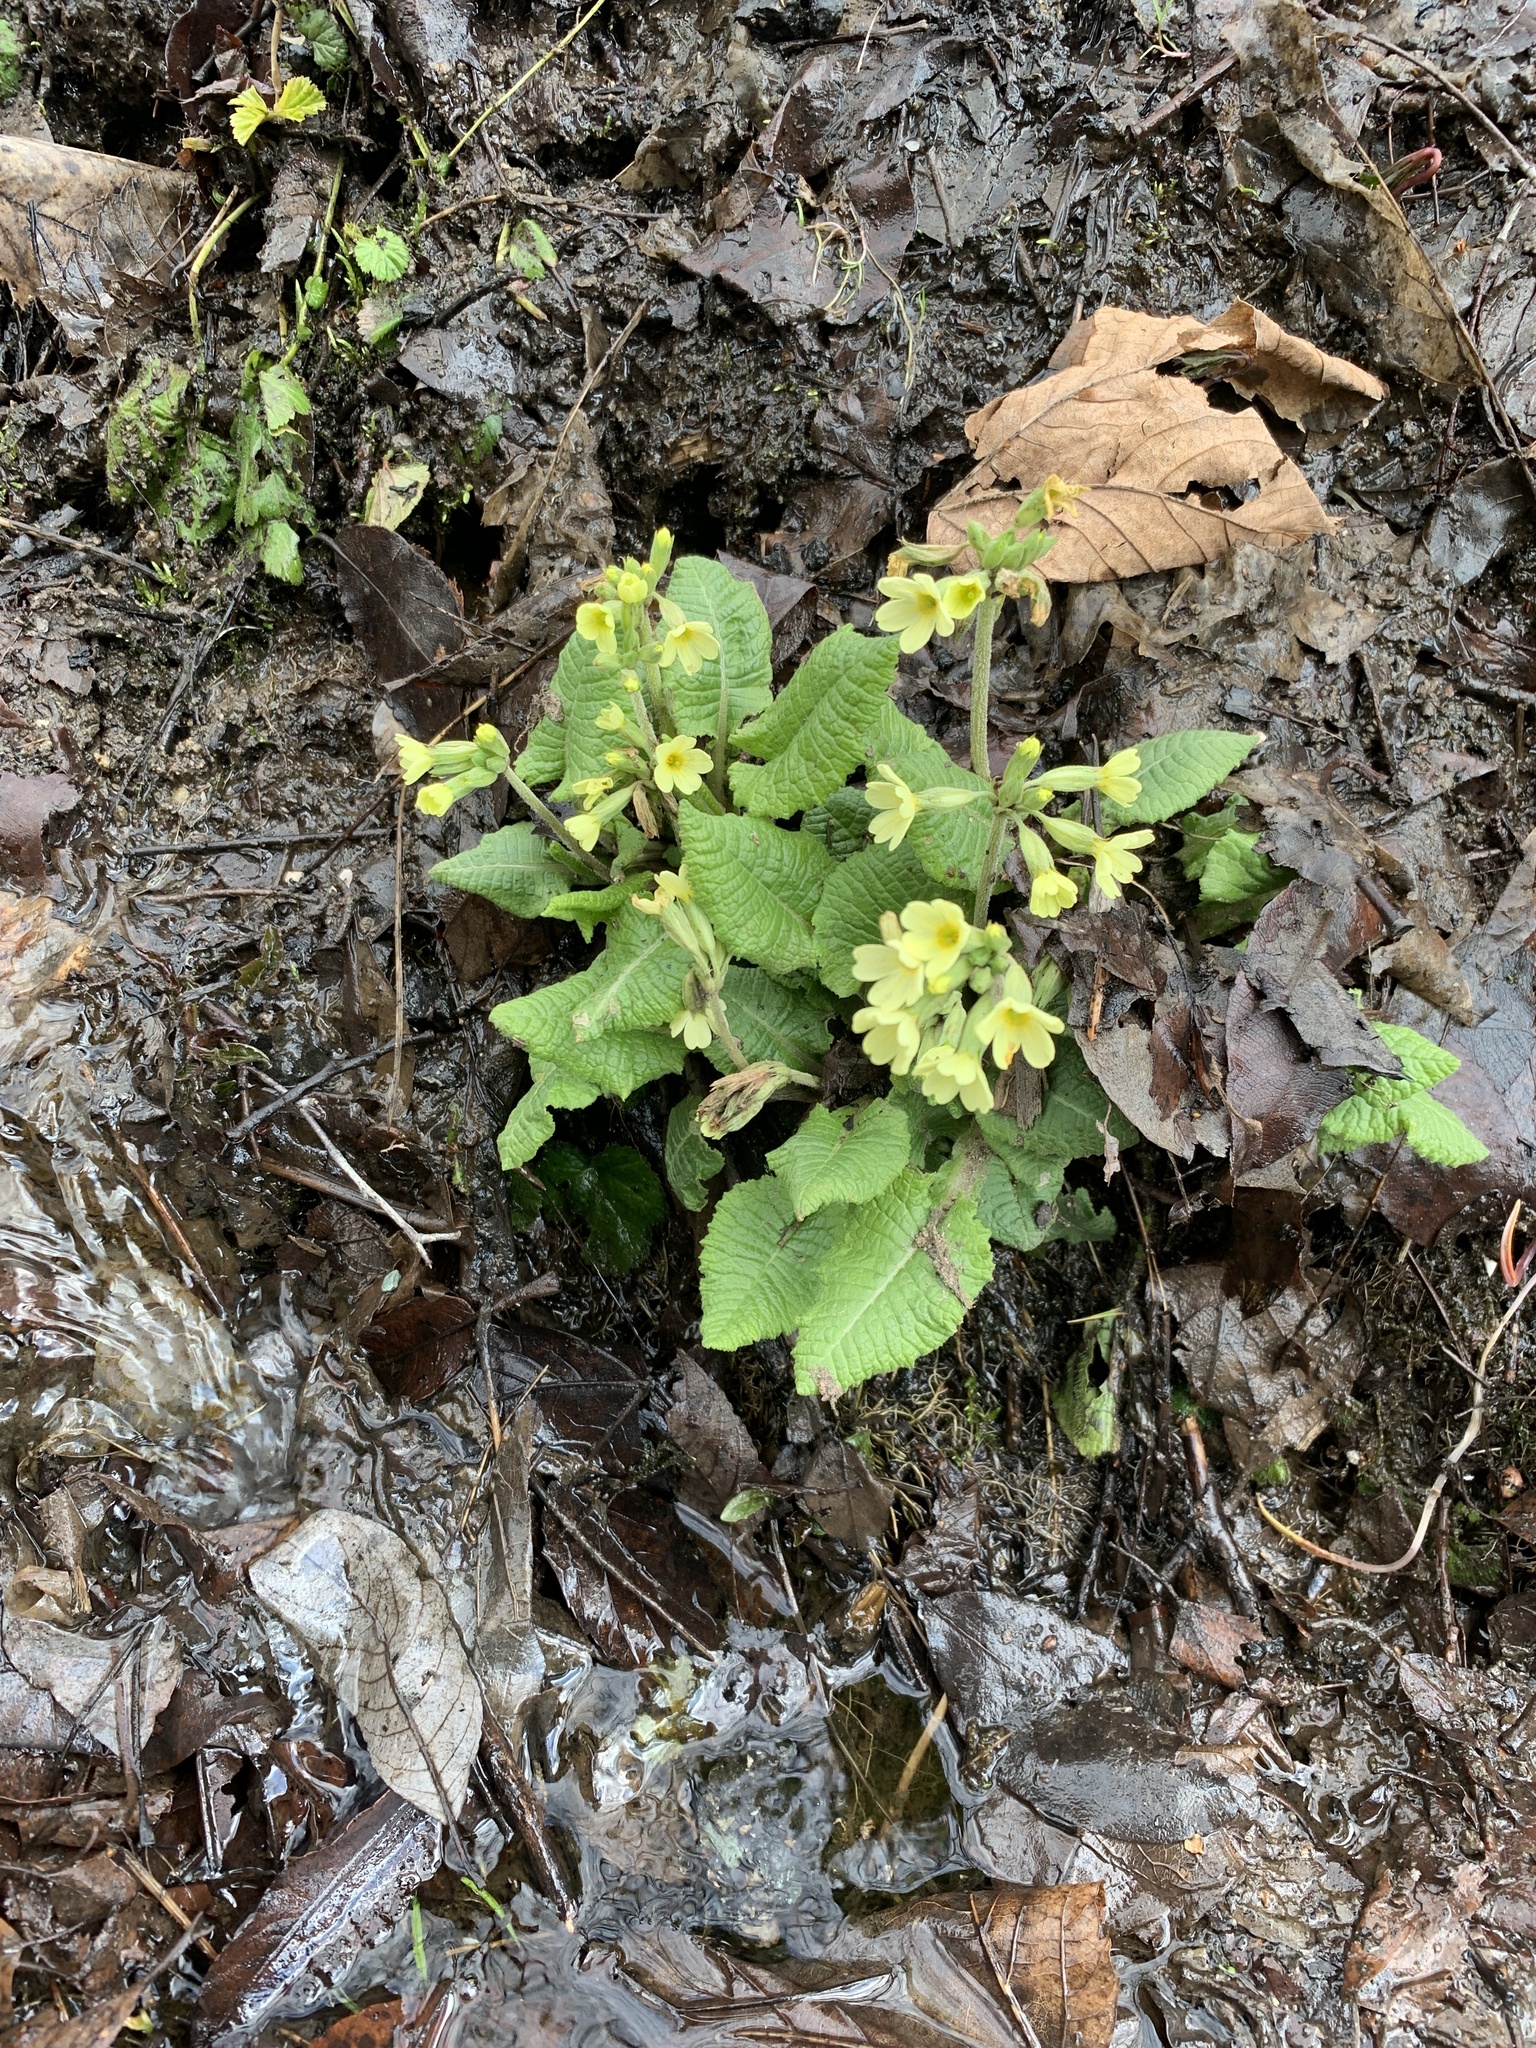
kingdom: Plantae
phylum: Tracheophyta
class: Magnoliopsida
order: Ericales
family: Primulaceae
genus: Primula
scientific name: Primula elatior
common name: Oxlip
